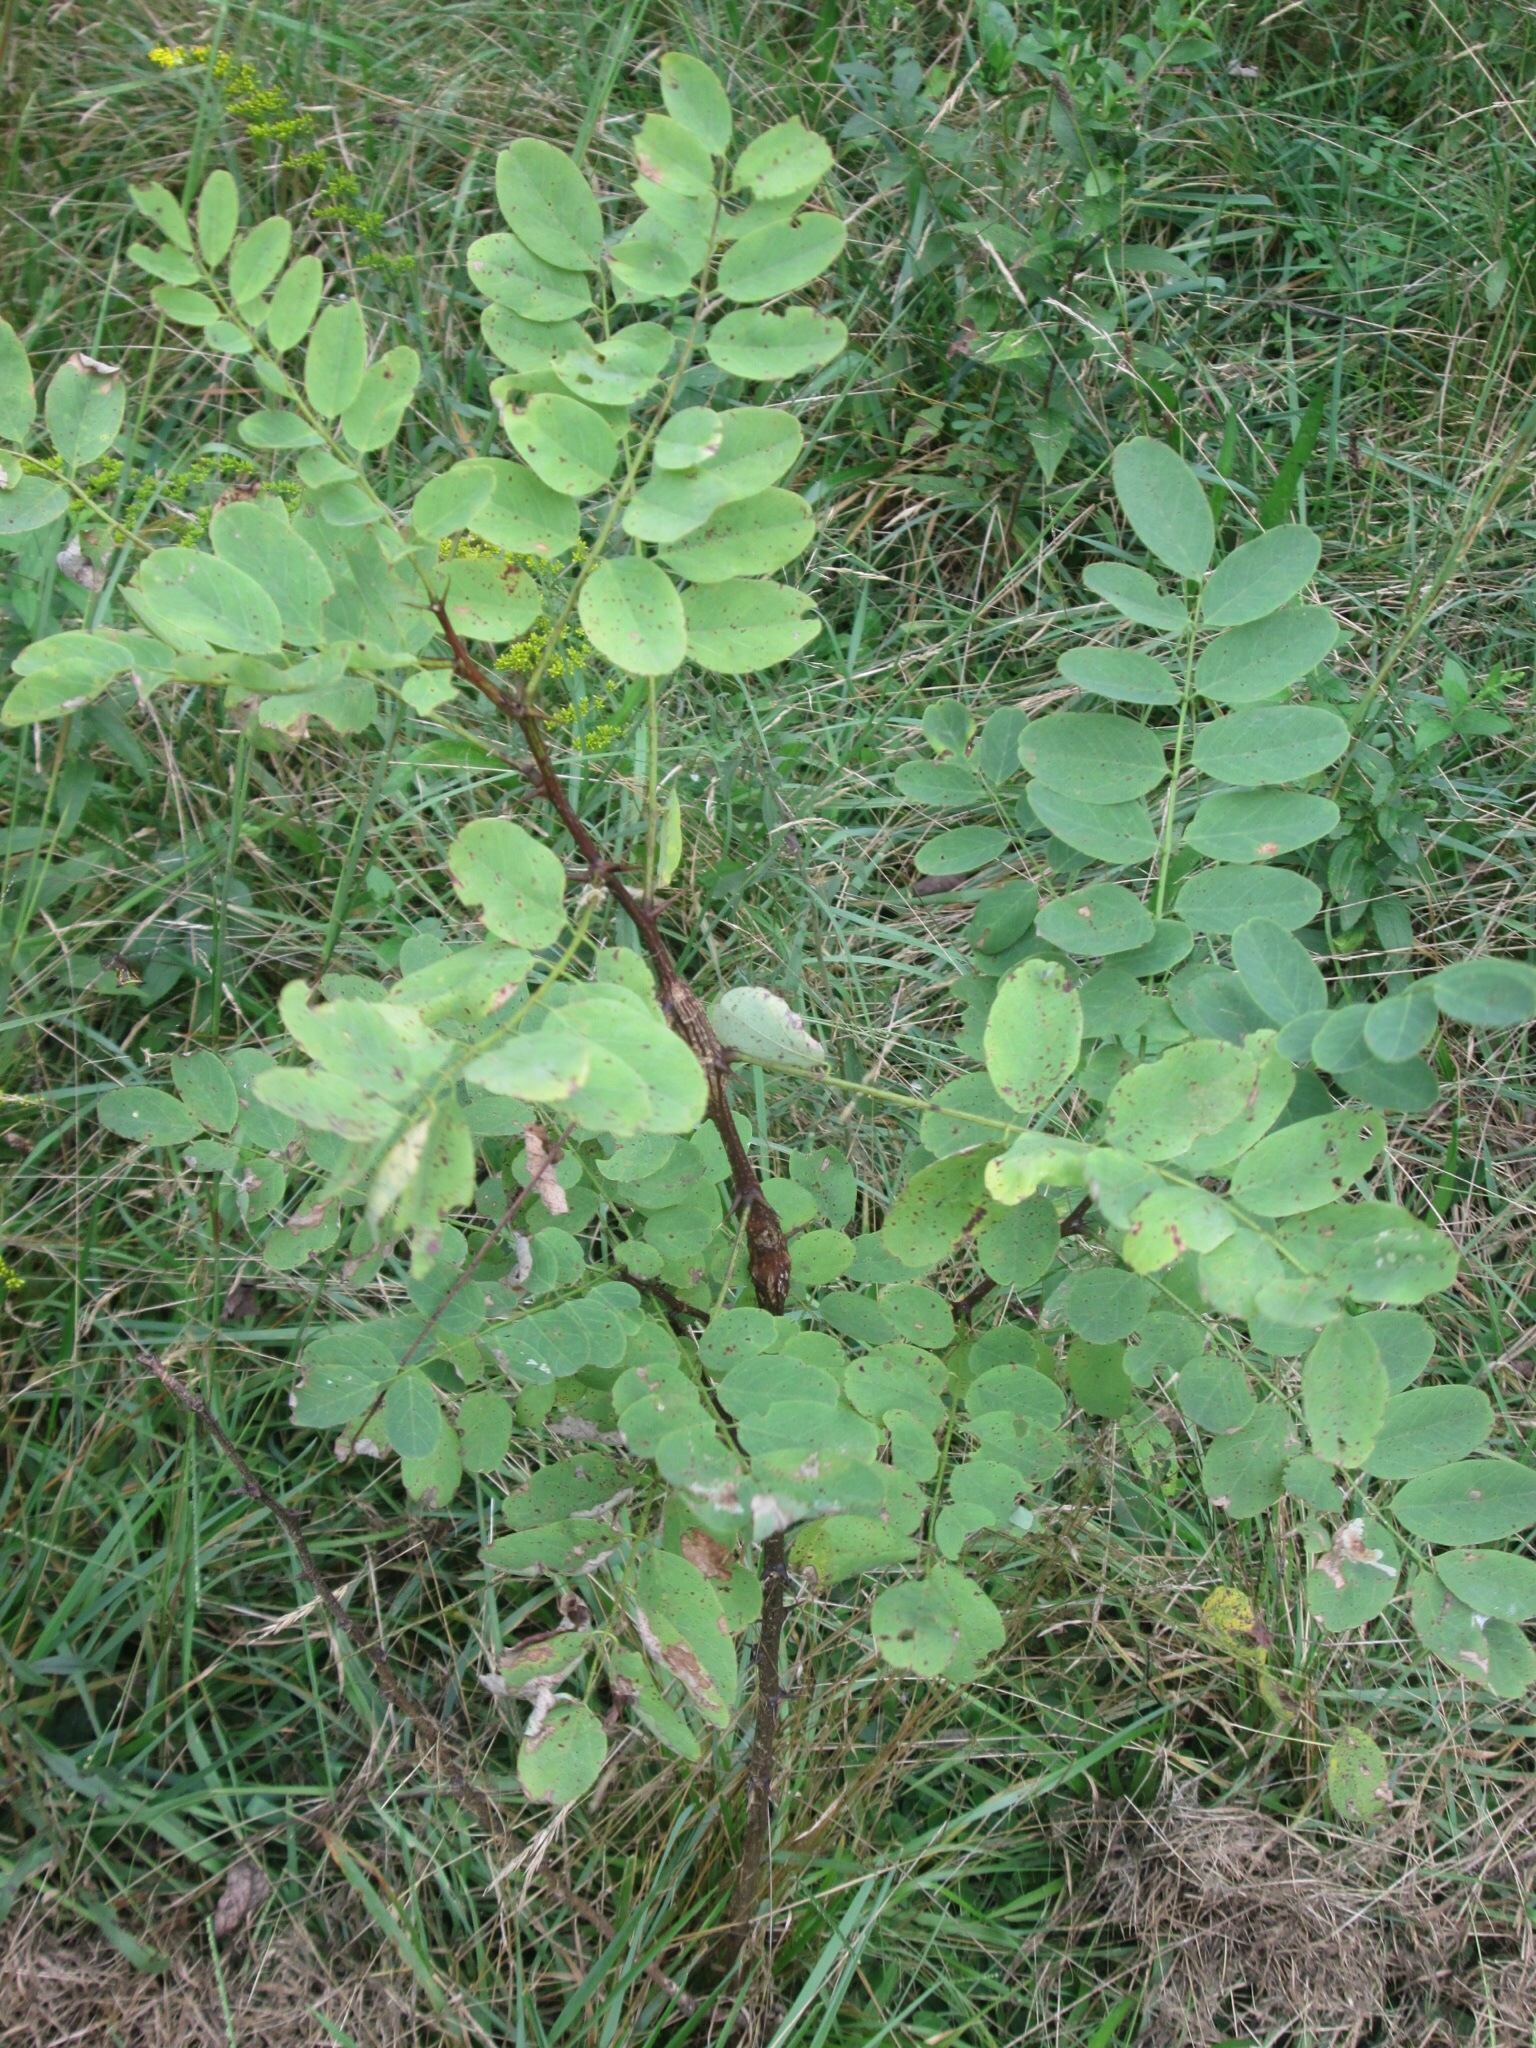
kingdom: Plantae
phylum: Tracheophyta
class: Magnoliopsida
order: Fabales
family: Fabaceae
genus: Robinia
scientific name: Robinia pseudoacacia
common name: Black locust
